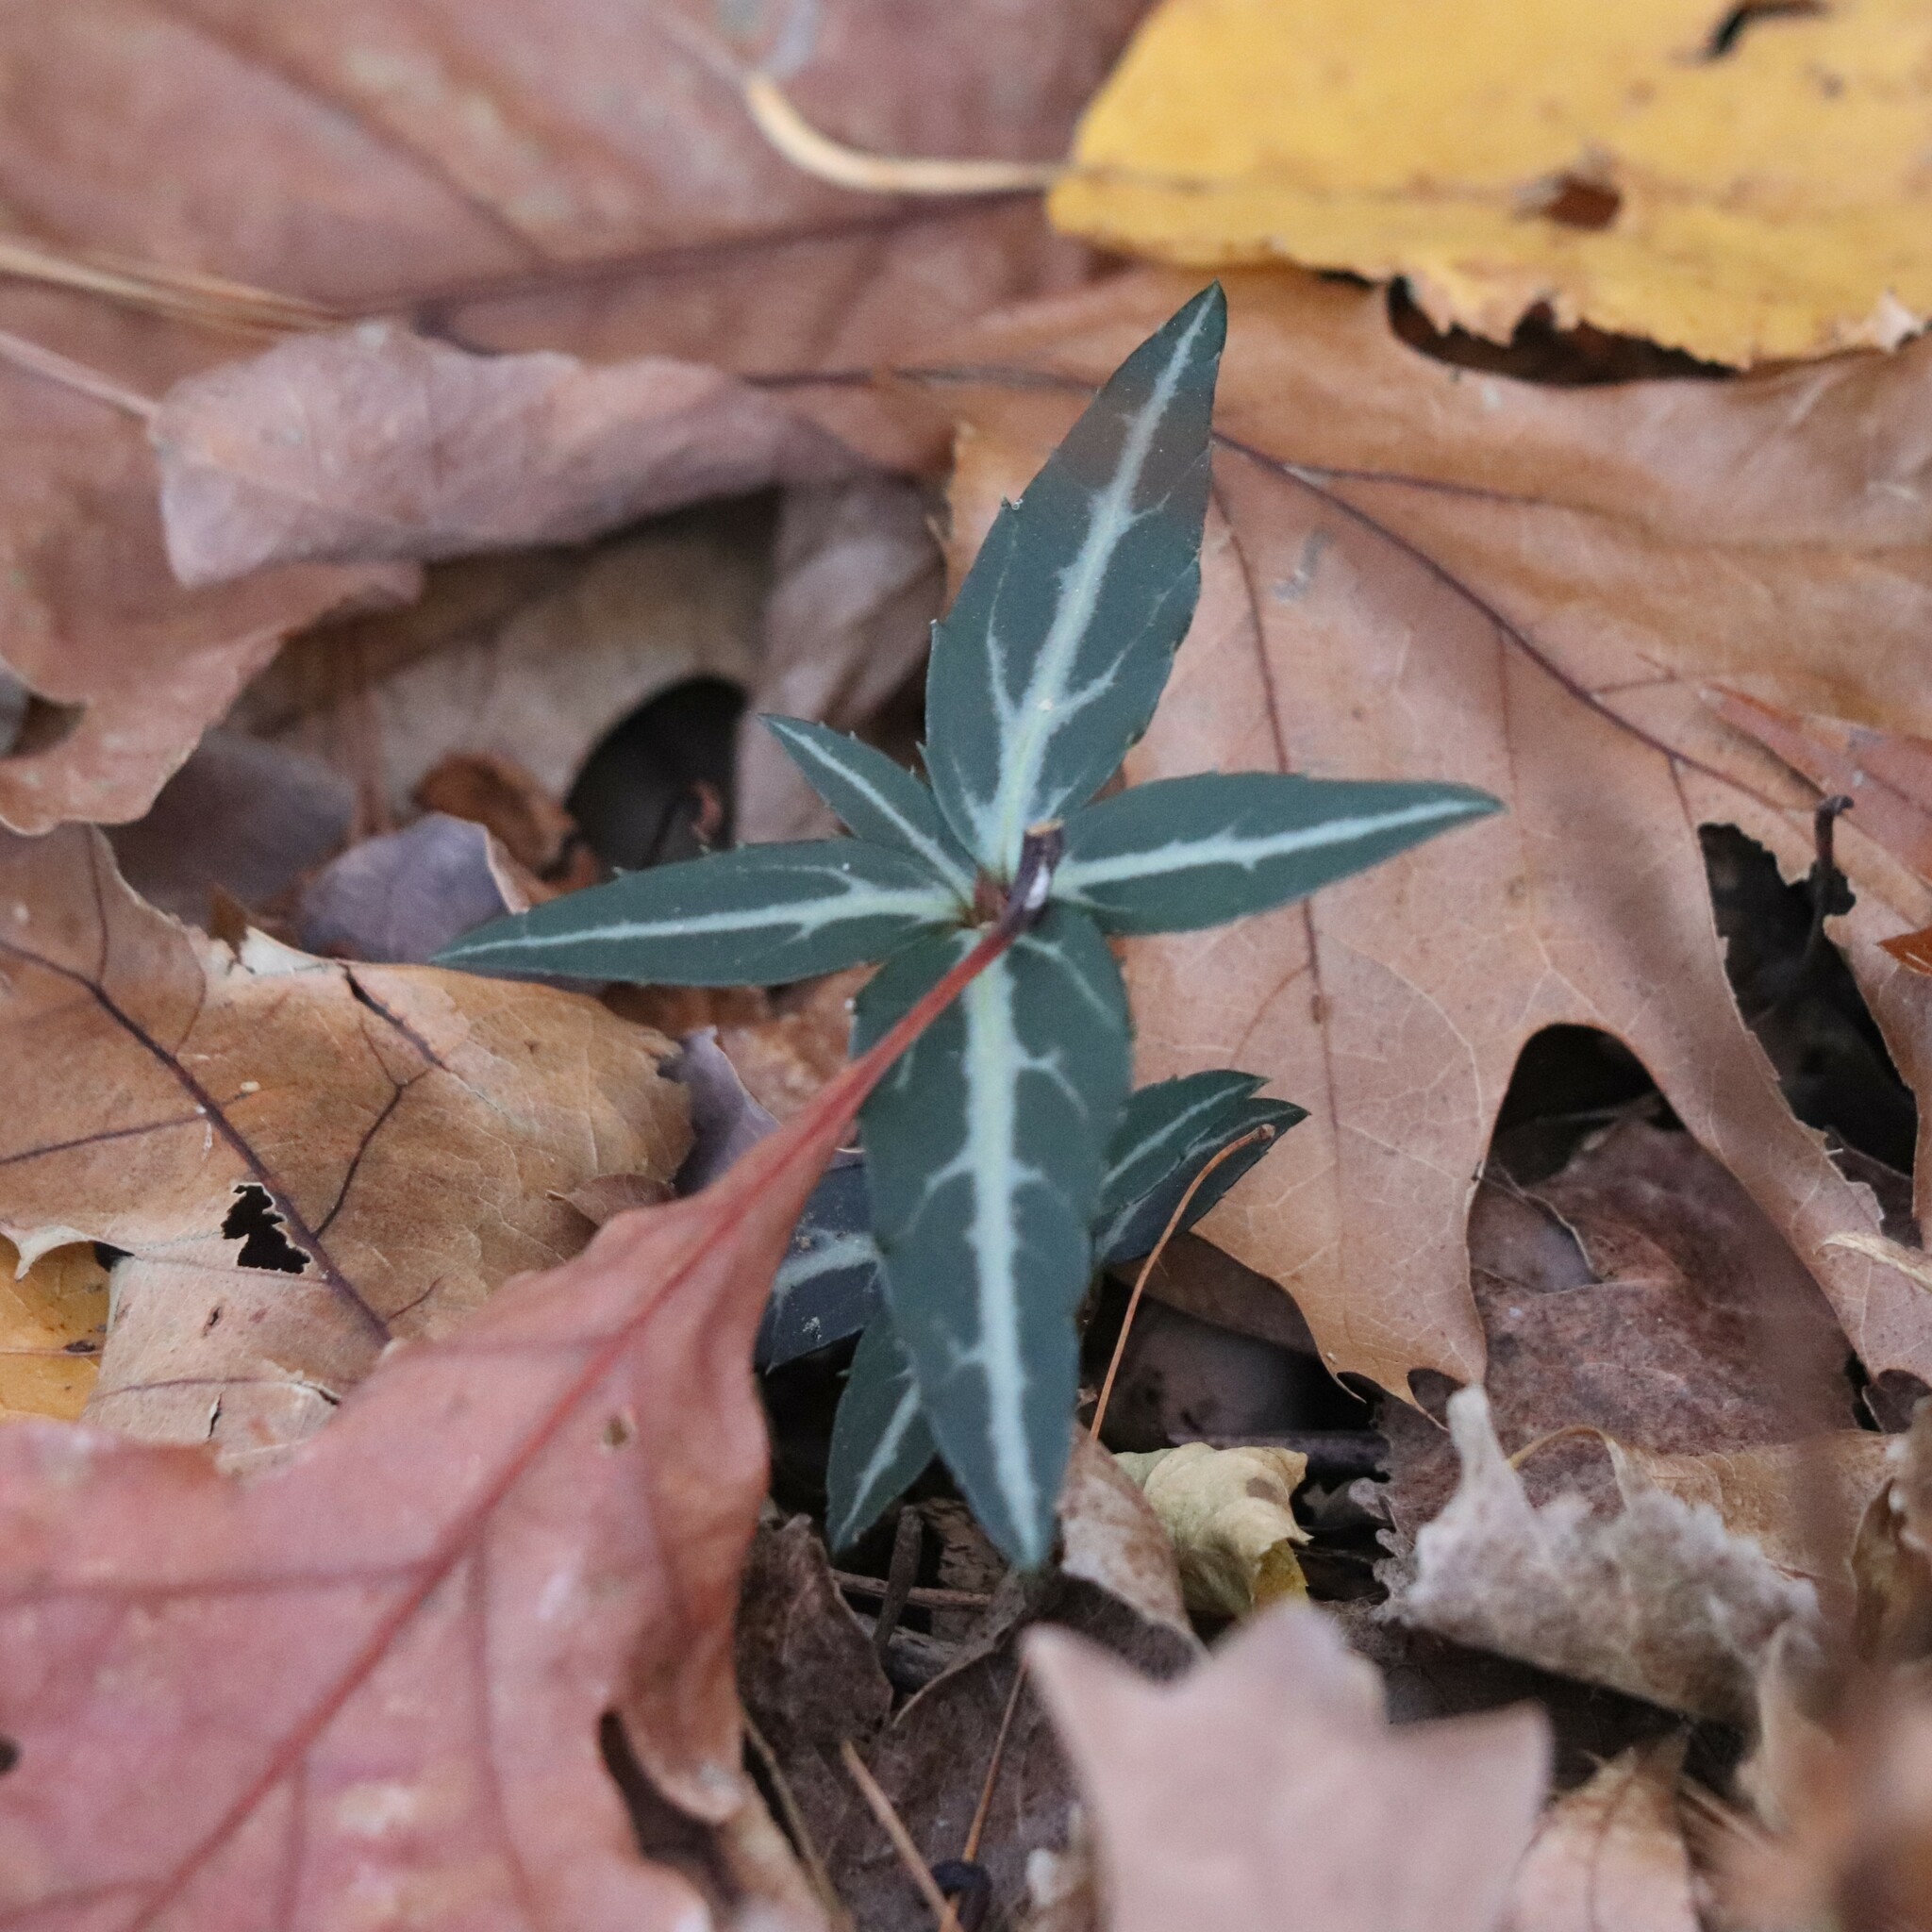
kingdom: Plantae
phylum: Tracheophyta
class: Magnoliopsida
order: Ericales
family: Ericaceae
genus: Chimaphila
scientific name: Chimaphila maculata
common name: Spotted pipsissewa
